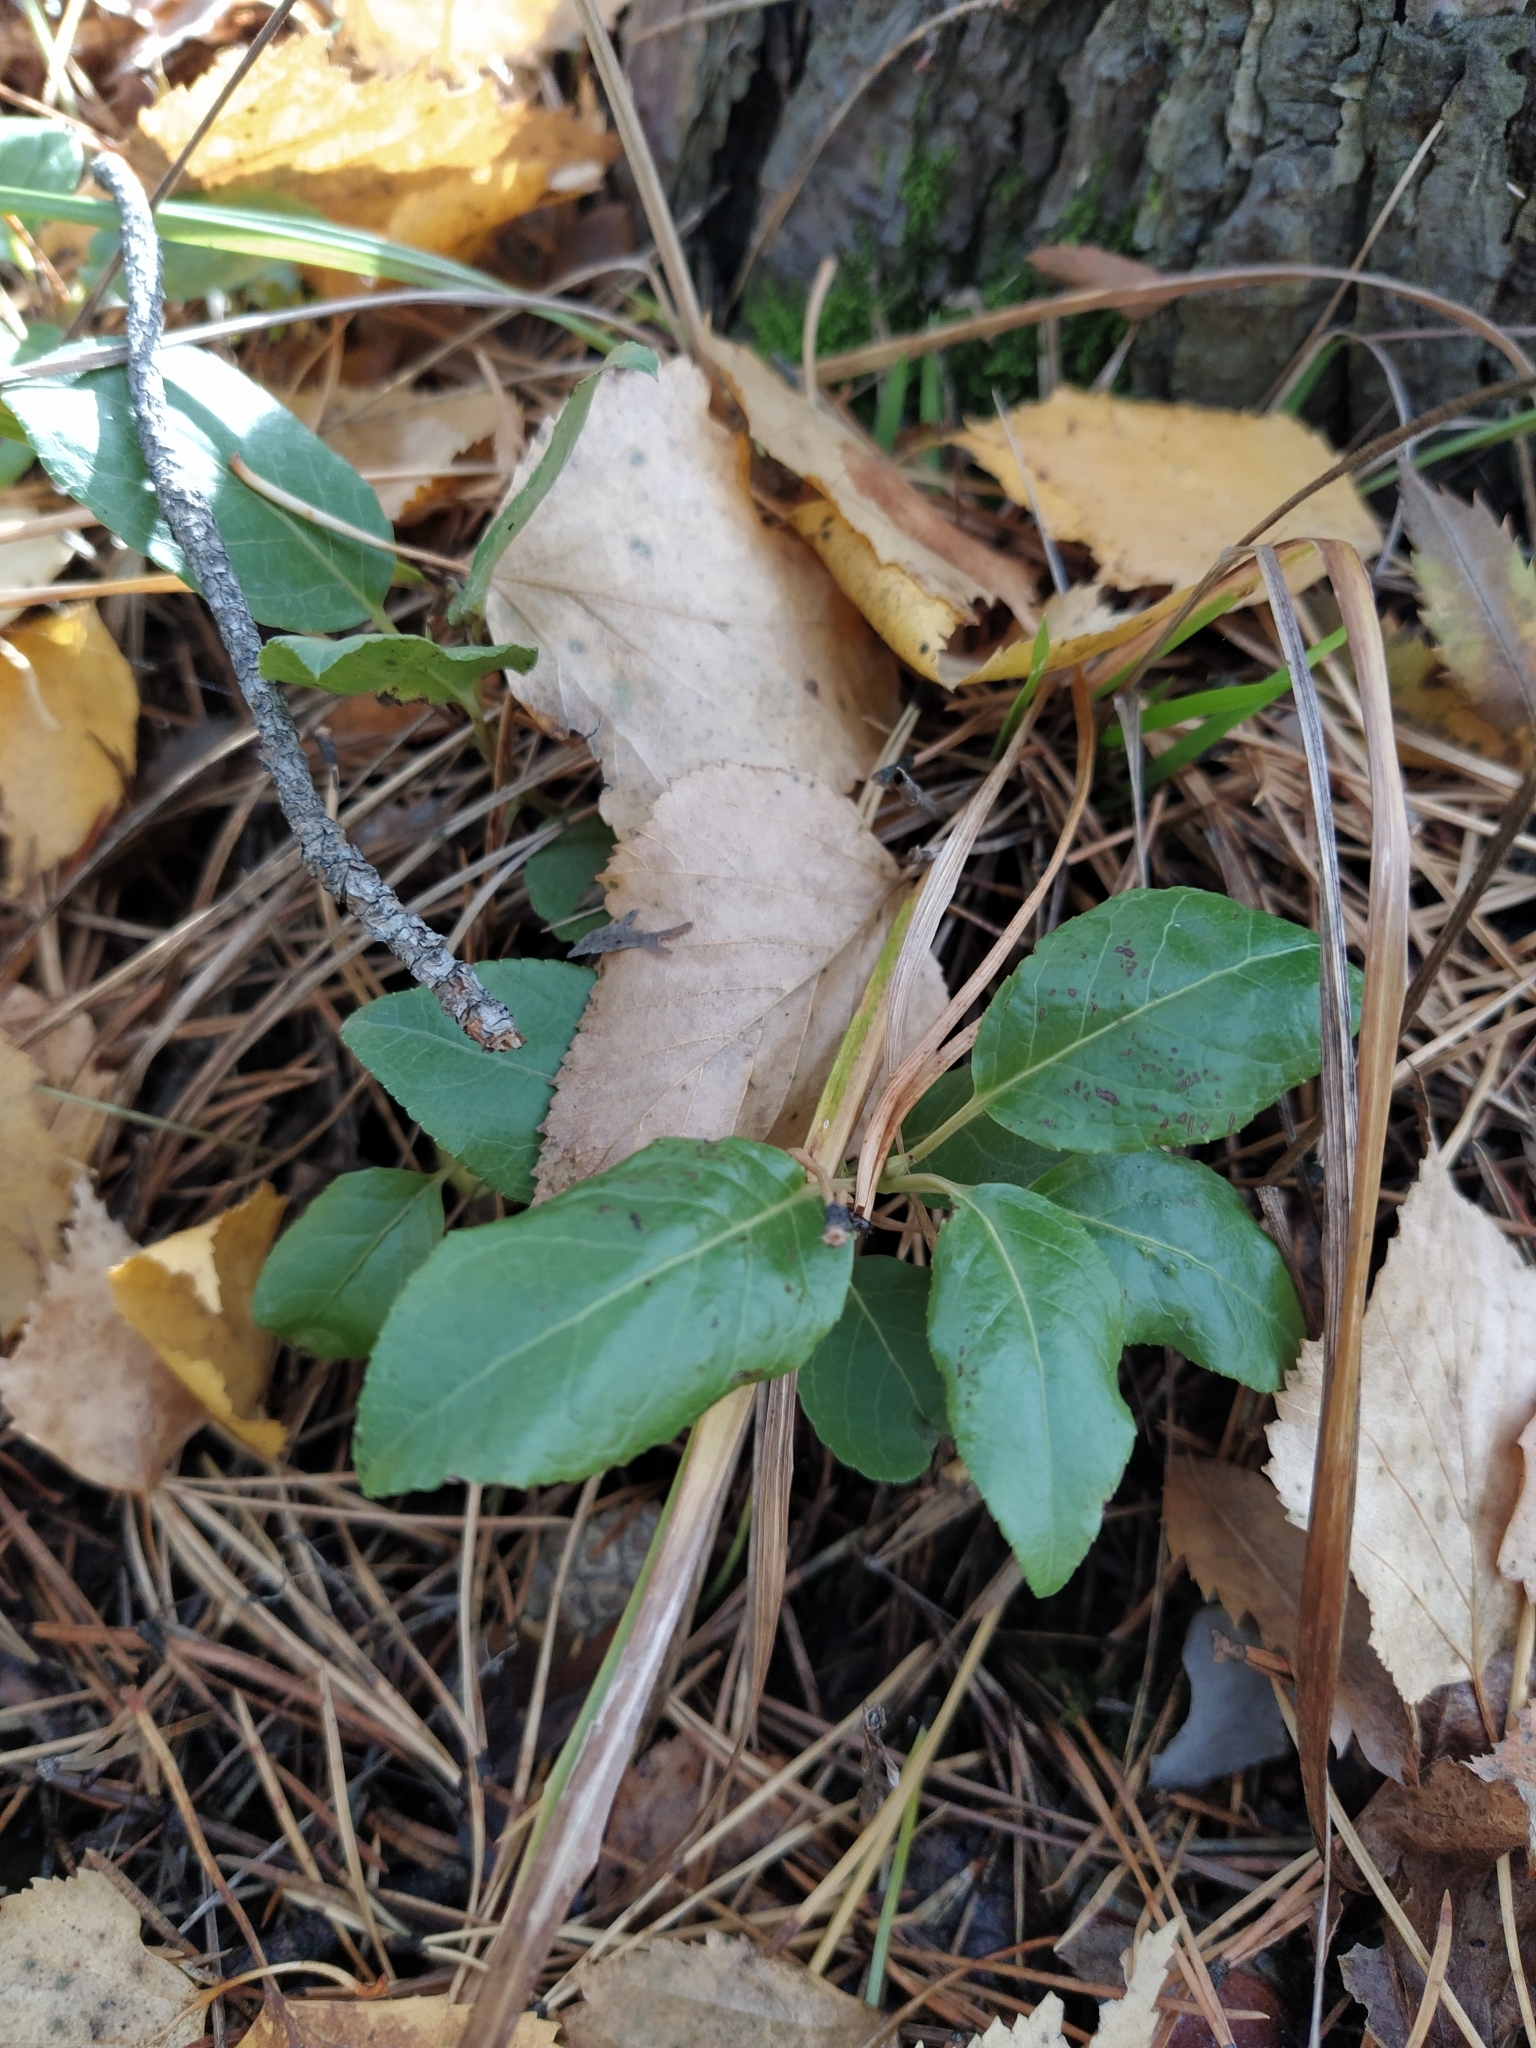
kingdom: Plantae
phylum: Tracheophyta
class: Magnoliopsida
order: Ericales
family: Ericaceae
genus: Orthilia
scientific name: Orthilia secunda
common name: One-sided orthilia
